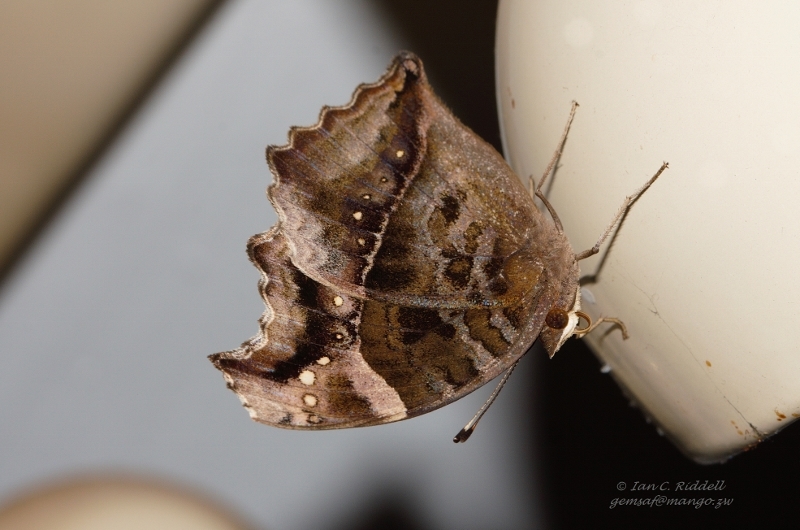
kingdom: Animalia
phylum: Arthropoda
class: Insecta
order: Lepidoptera
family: Nymphalidae
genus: Junonia
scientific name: Junonia archesia
